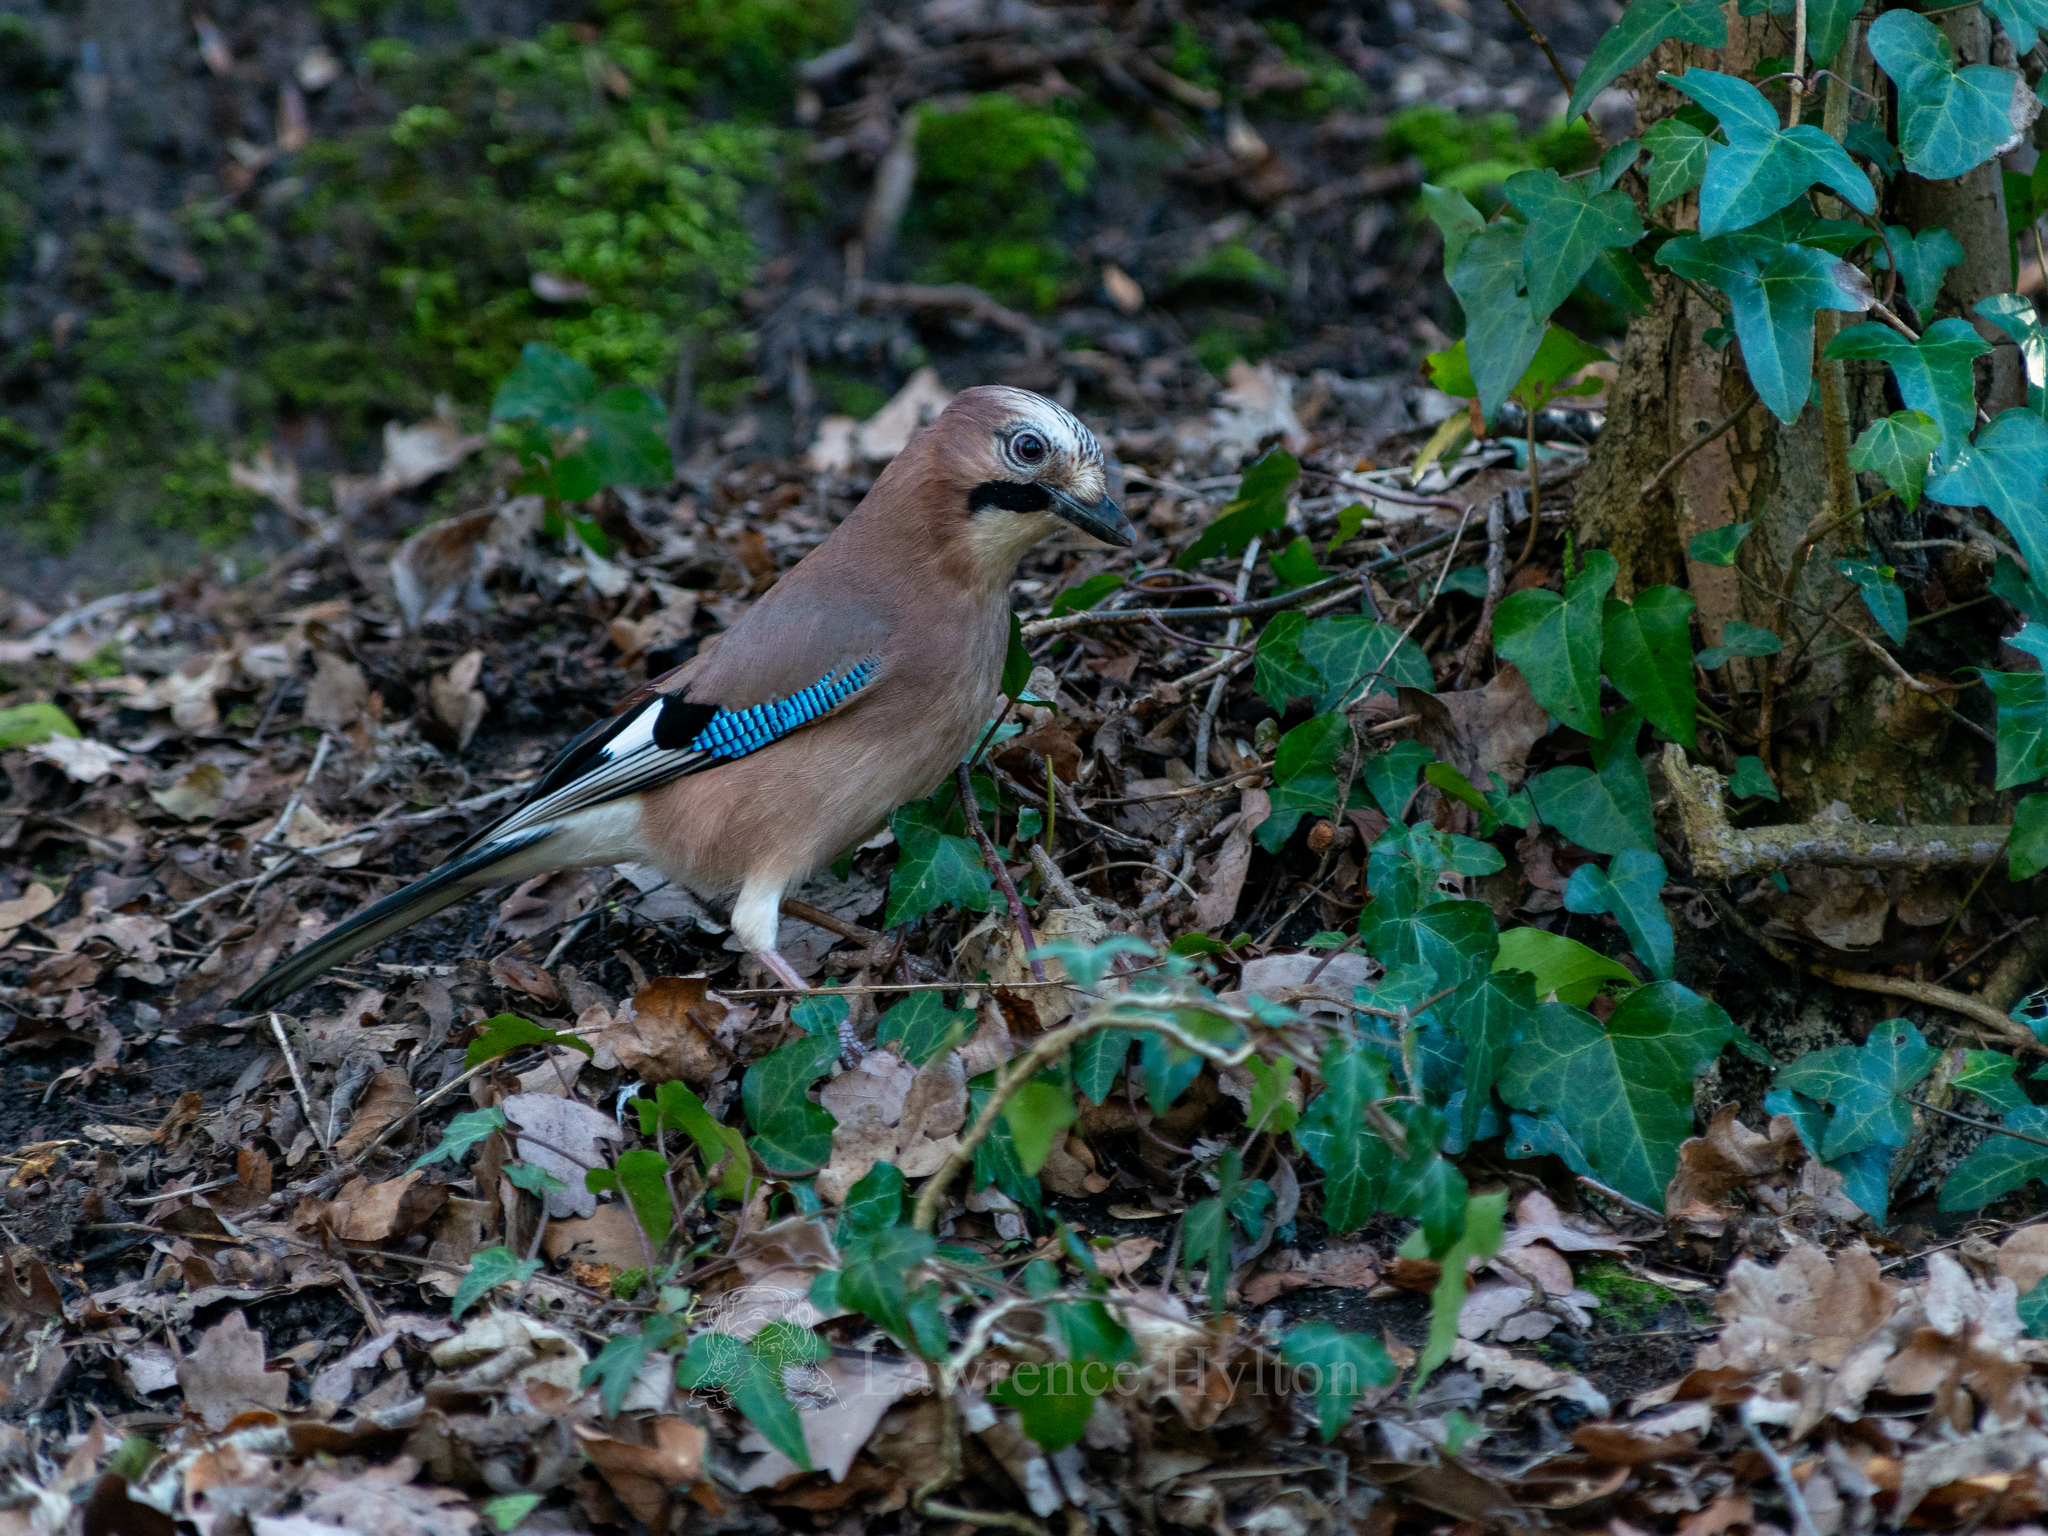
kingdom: Animalia
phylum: Chordata
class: Aves
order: Passeriformes
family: Corvidae
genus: Garrulus
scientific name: Garrulus glandarius
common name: Eurasian jay
